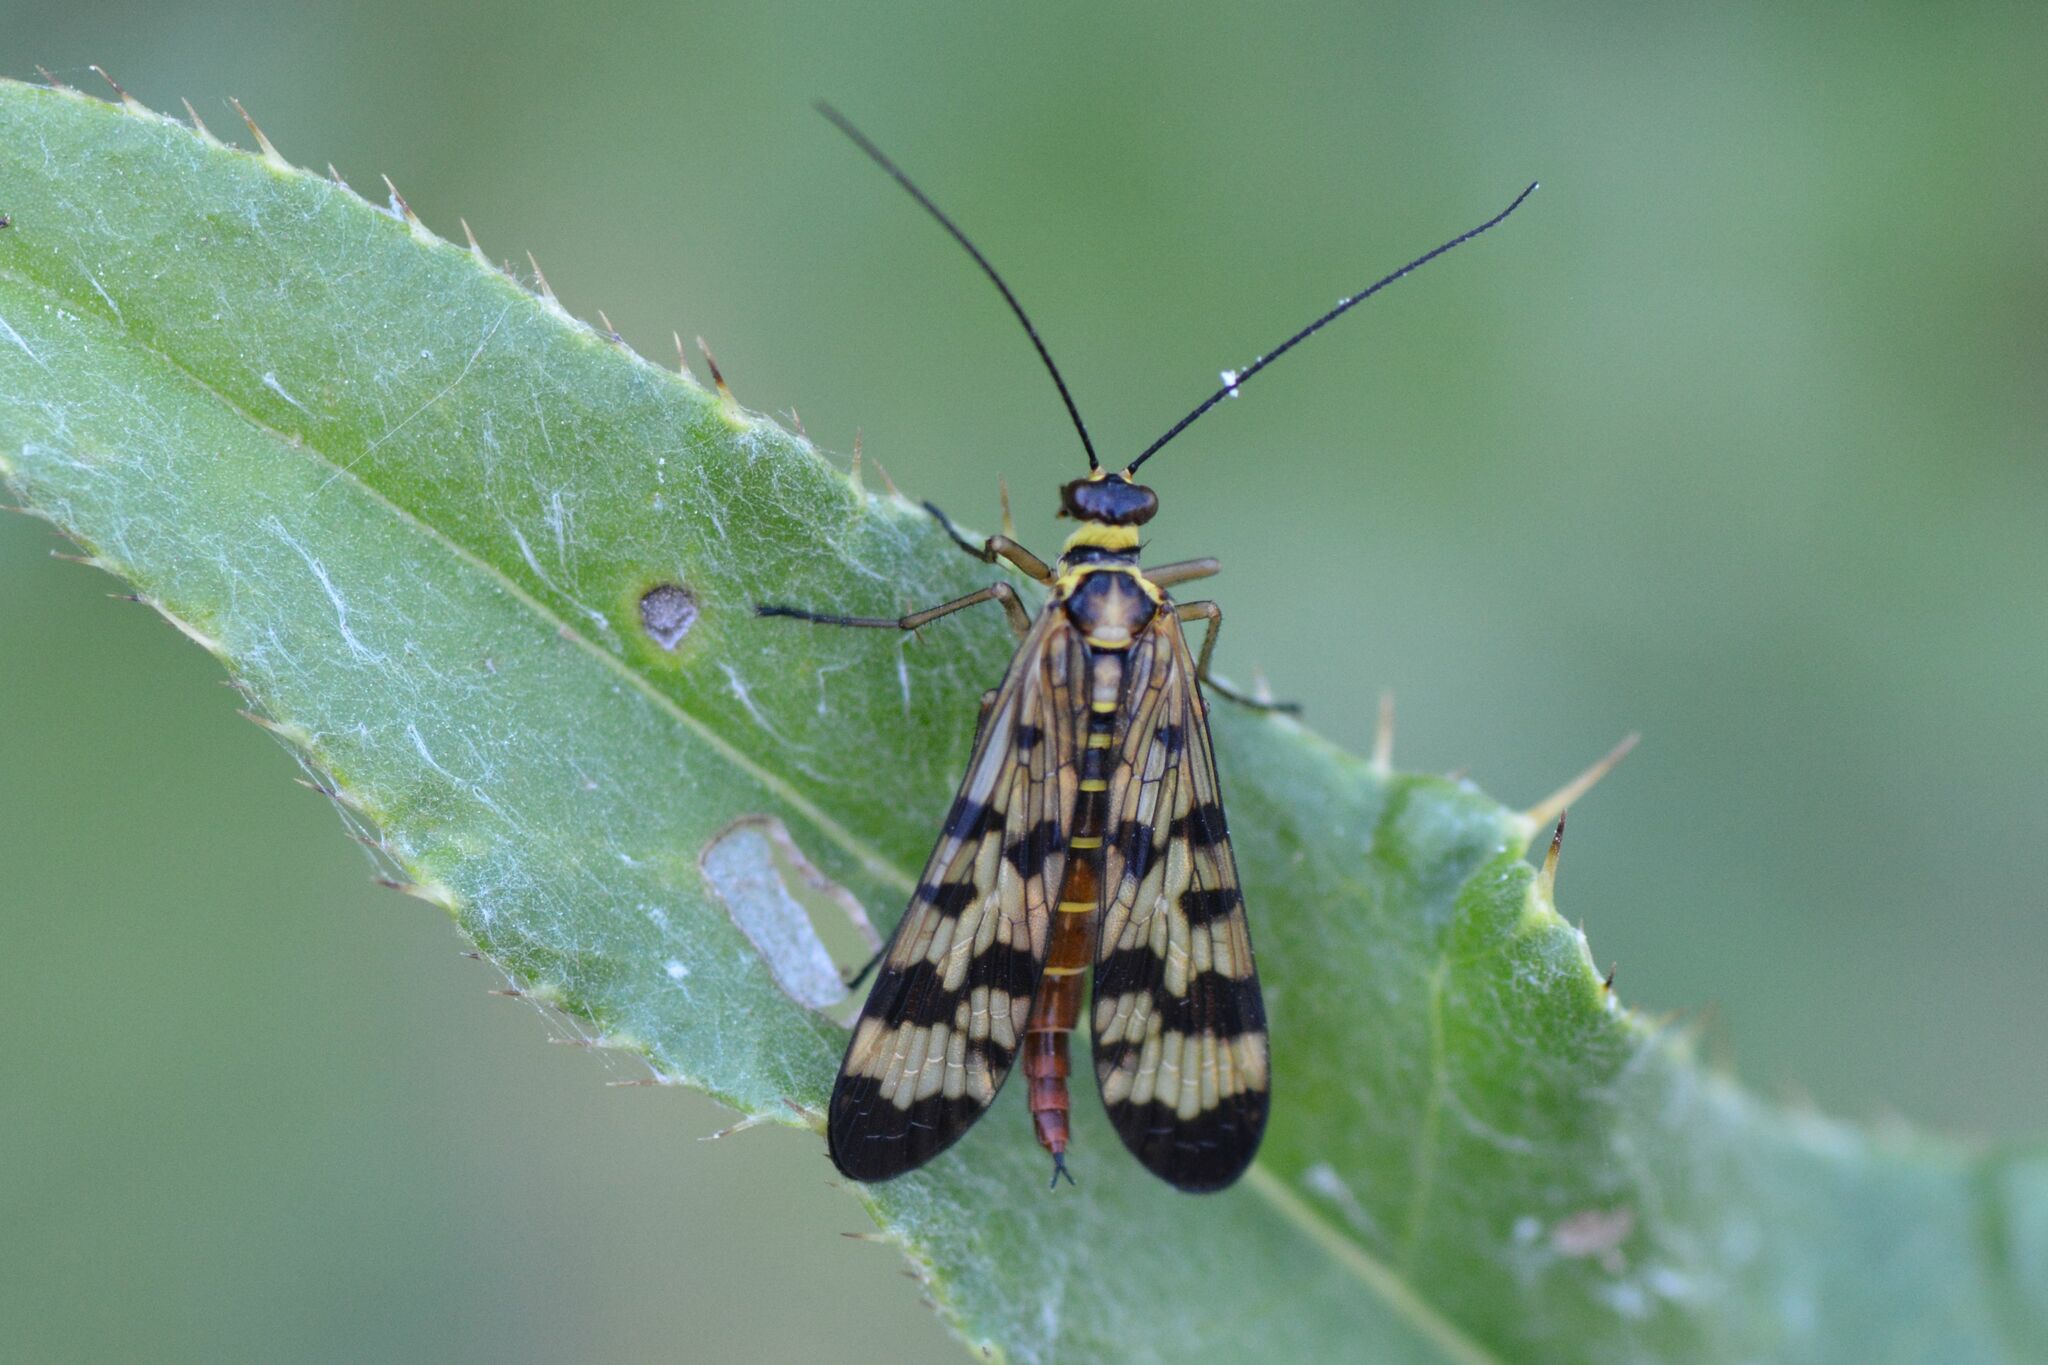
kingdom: Animalia
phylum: Arthropoda
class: Insecta
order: Mecoptera
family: Panorpidae
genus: Panorpa
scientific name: Panorpa communis
